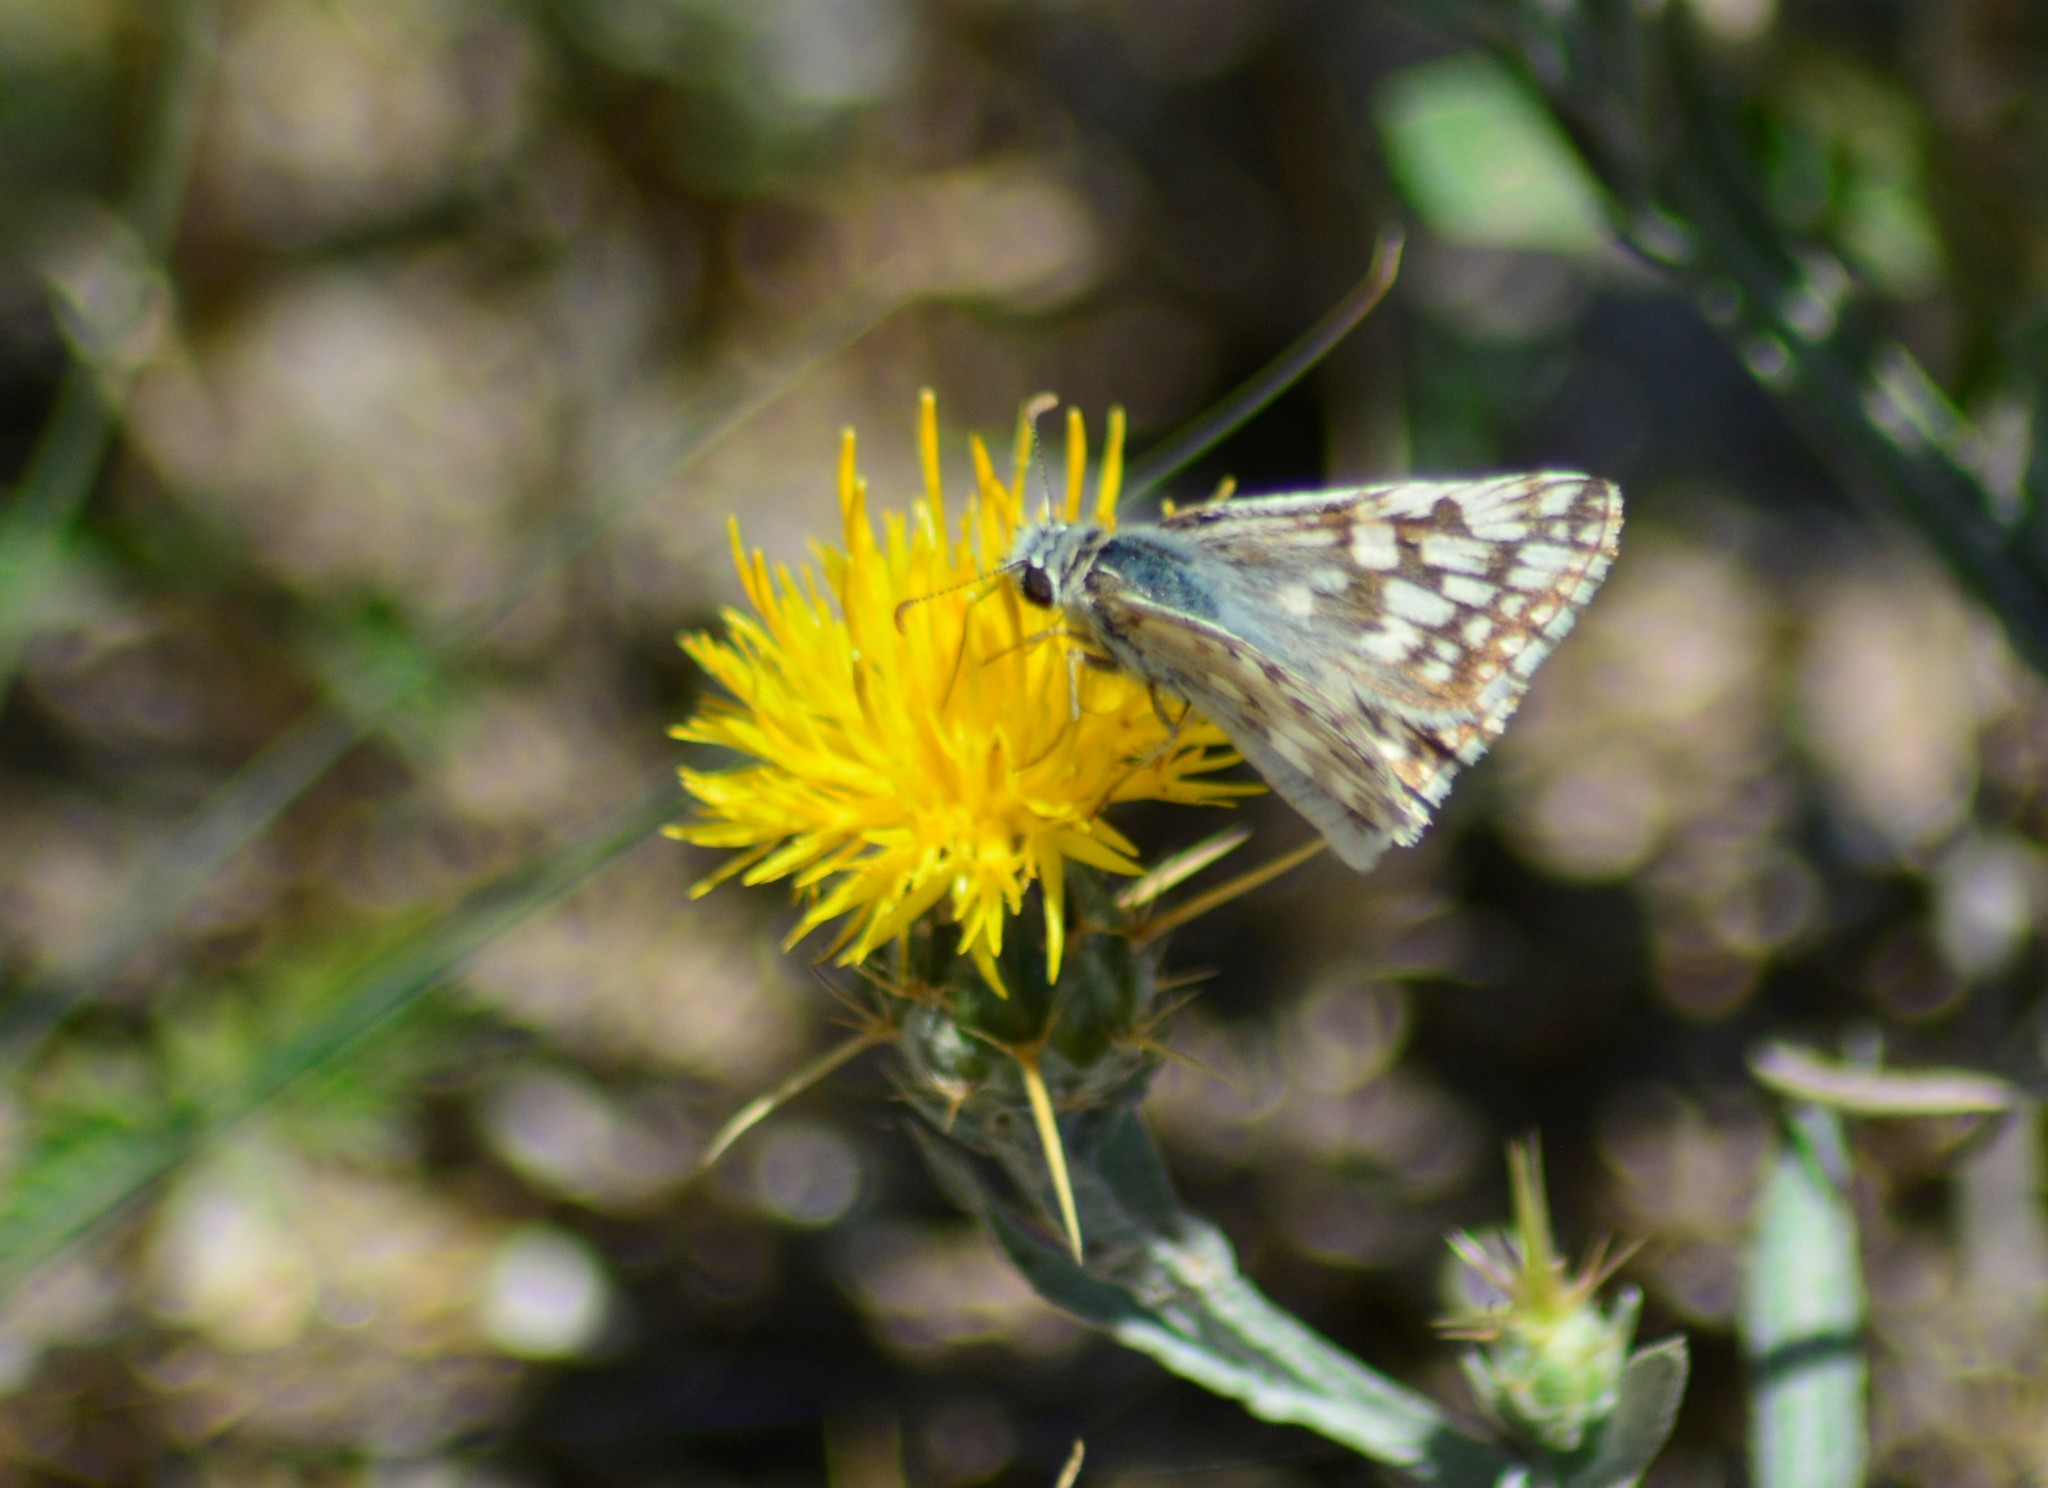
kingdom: Animalia
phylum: Arthropoda
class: Insecta
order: Lepidoptera
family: Hesperiidae
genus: Heliopetes
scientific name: Heliopetes americanus
